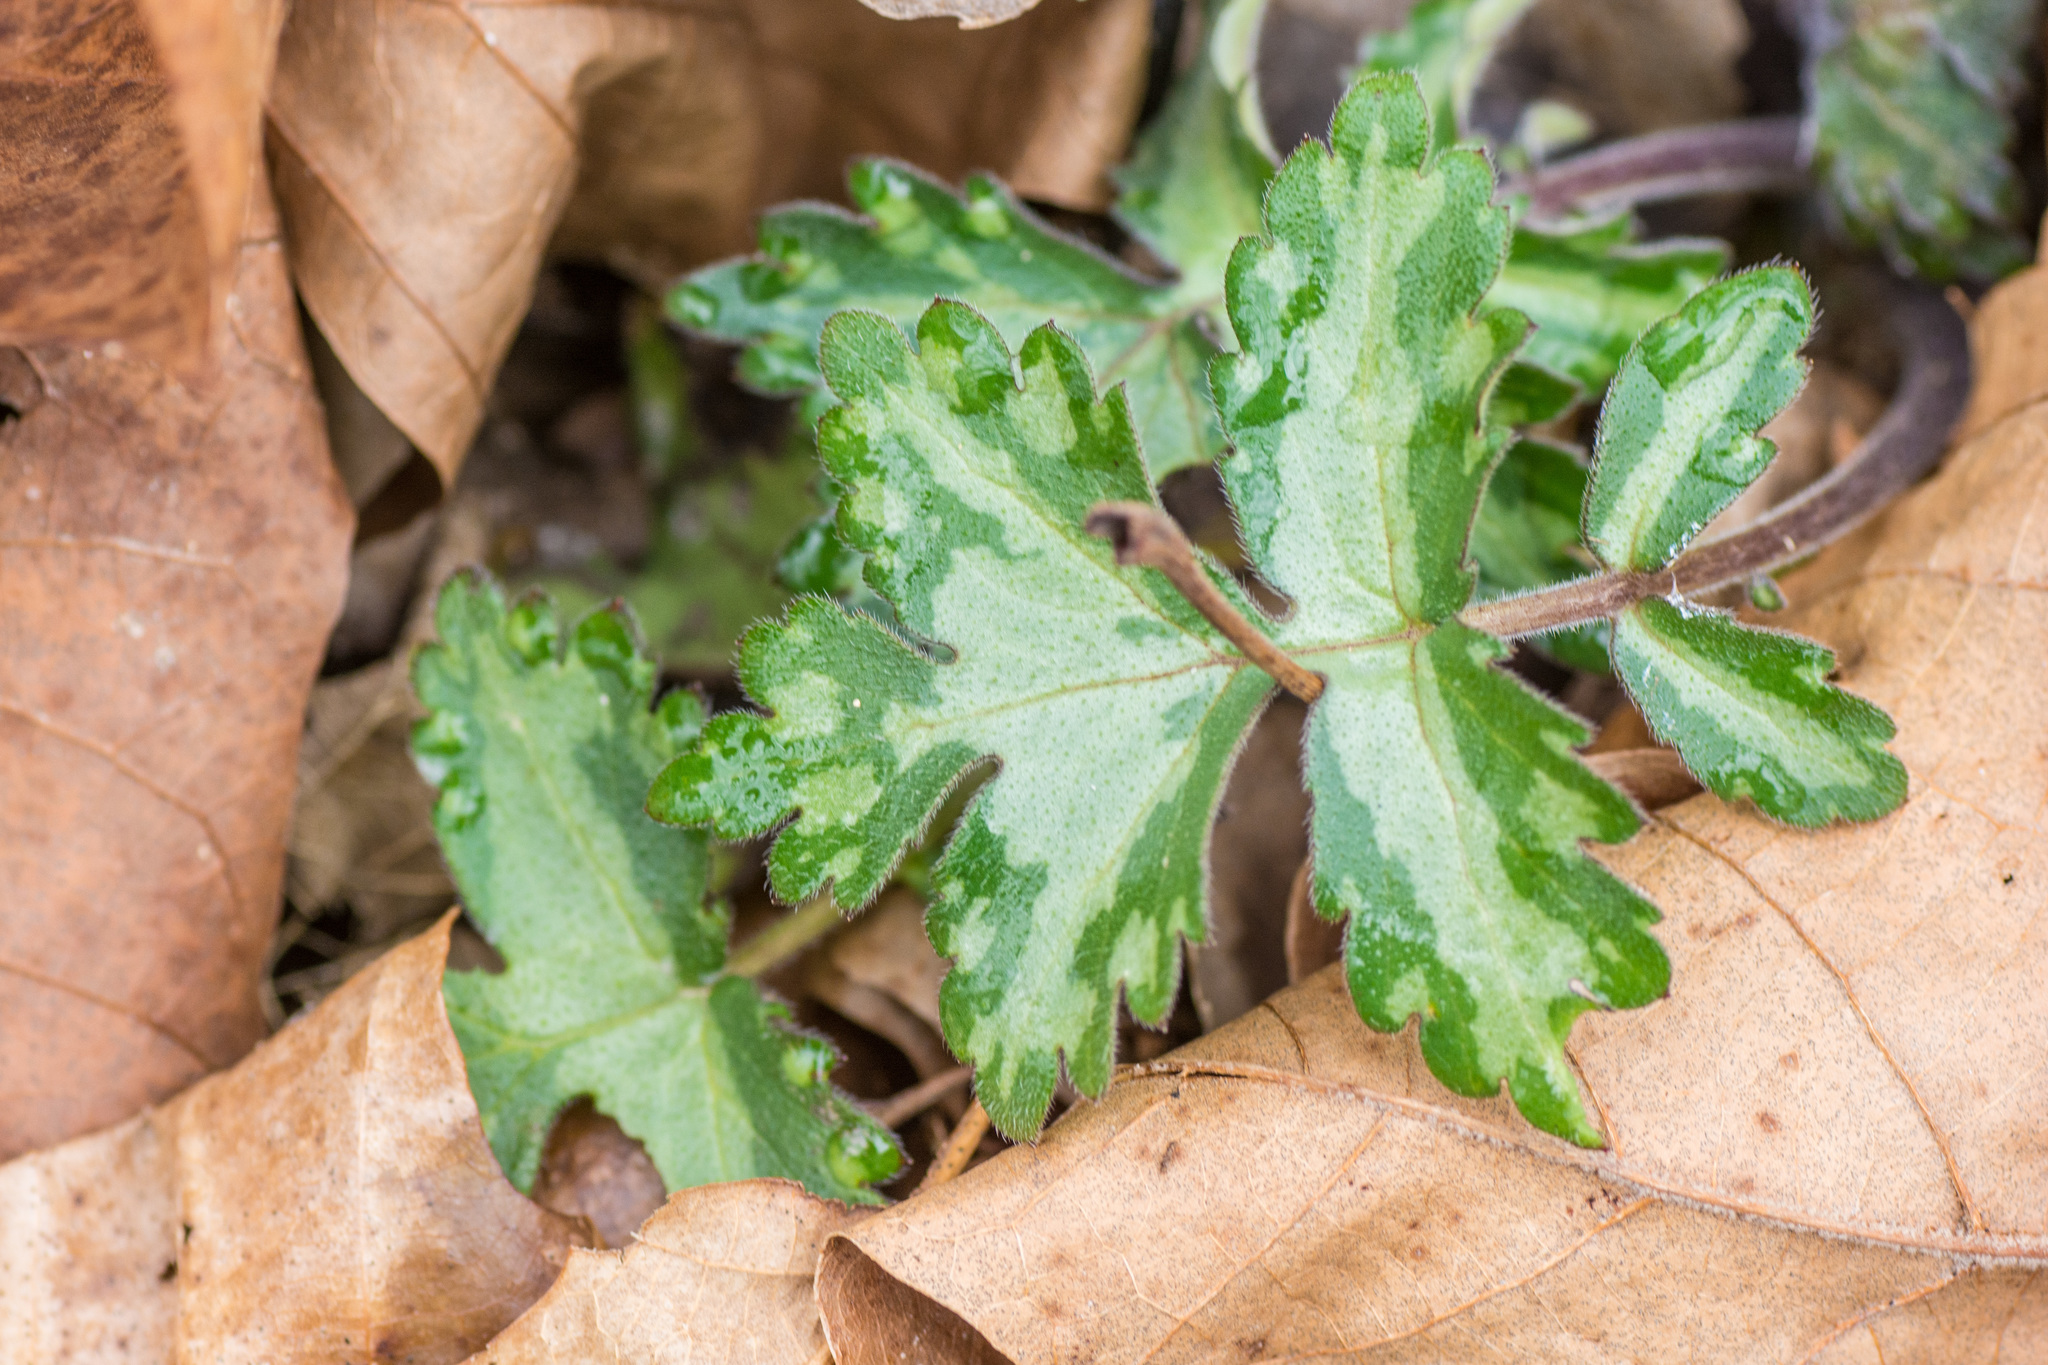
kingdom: Plantae
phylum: Tracheophyta
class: Magnoliopsida
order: Boraginales
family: Hydrophyllaceae
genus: Hydrophyllum
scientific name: Hydrophyllum appendiculatum
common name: Appendaged waterleaf
